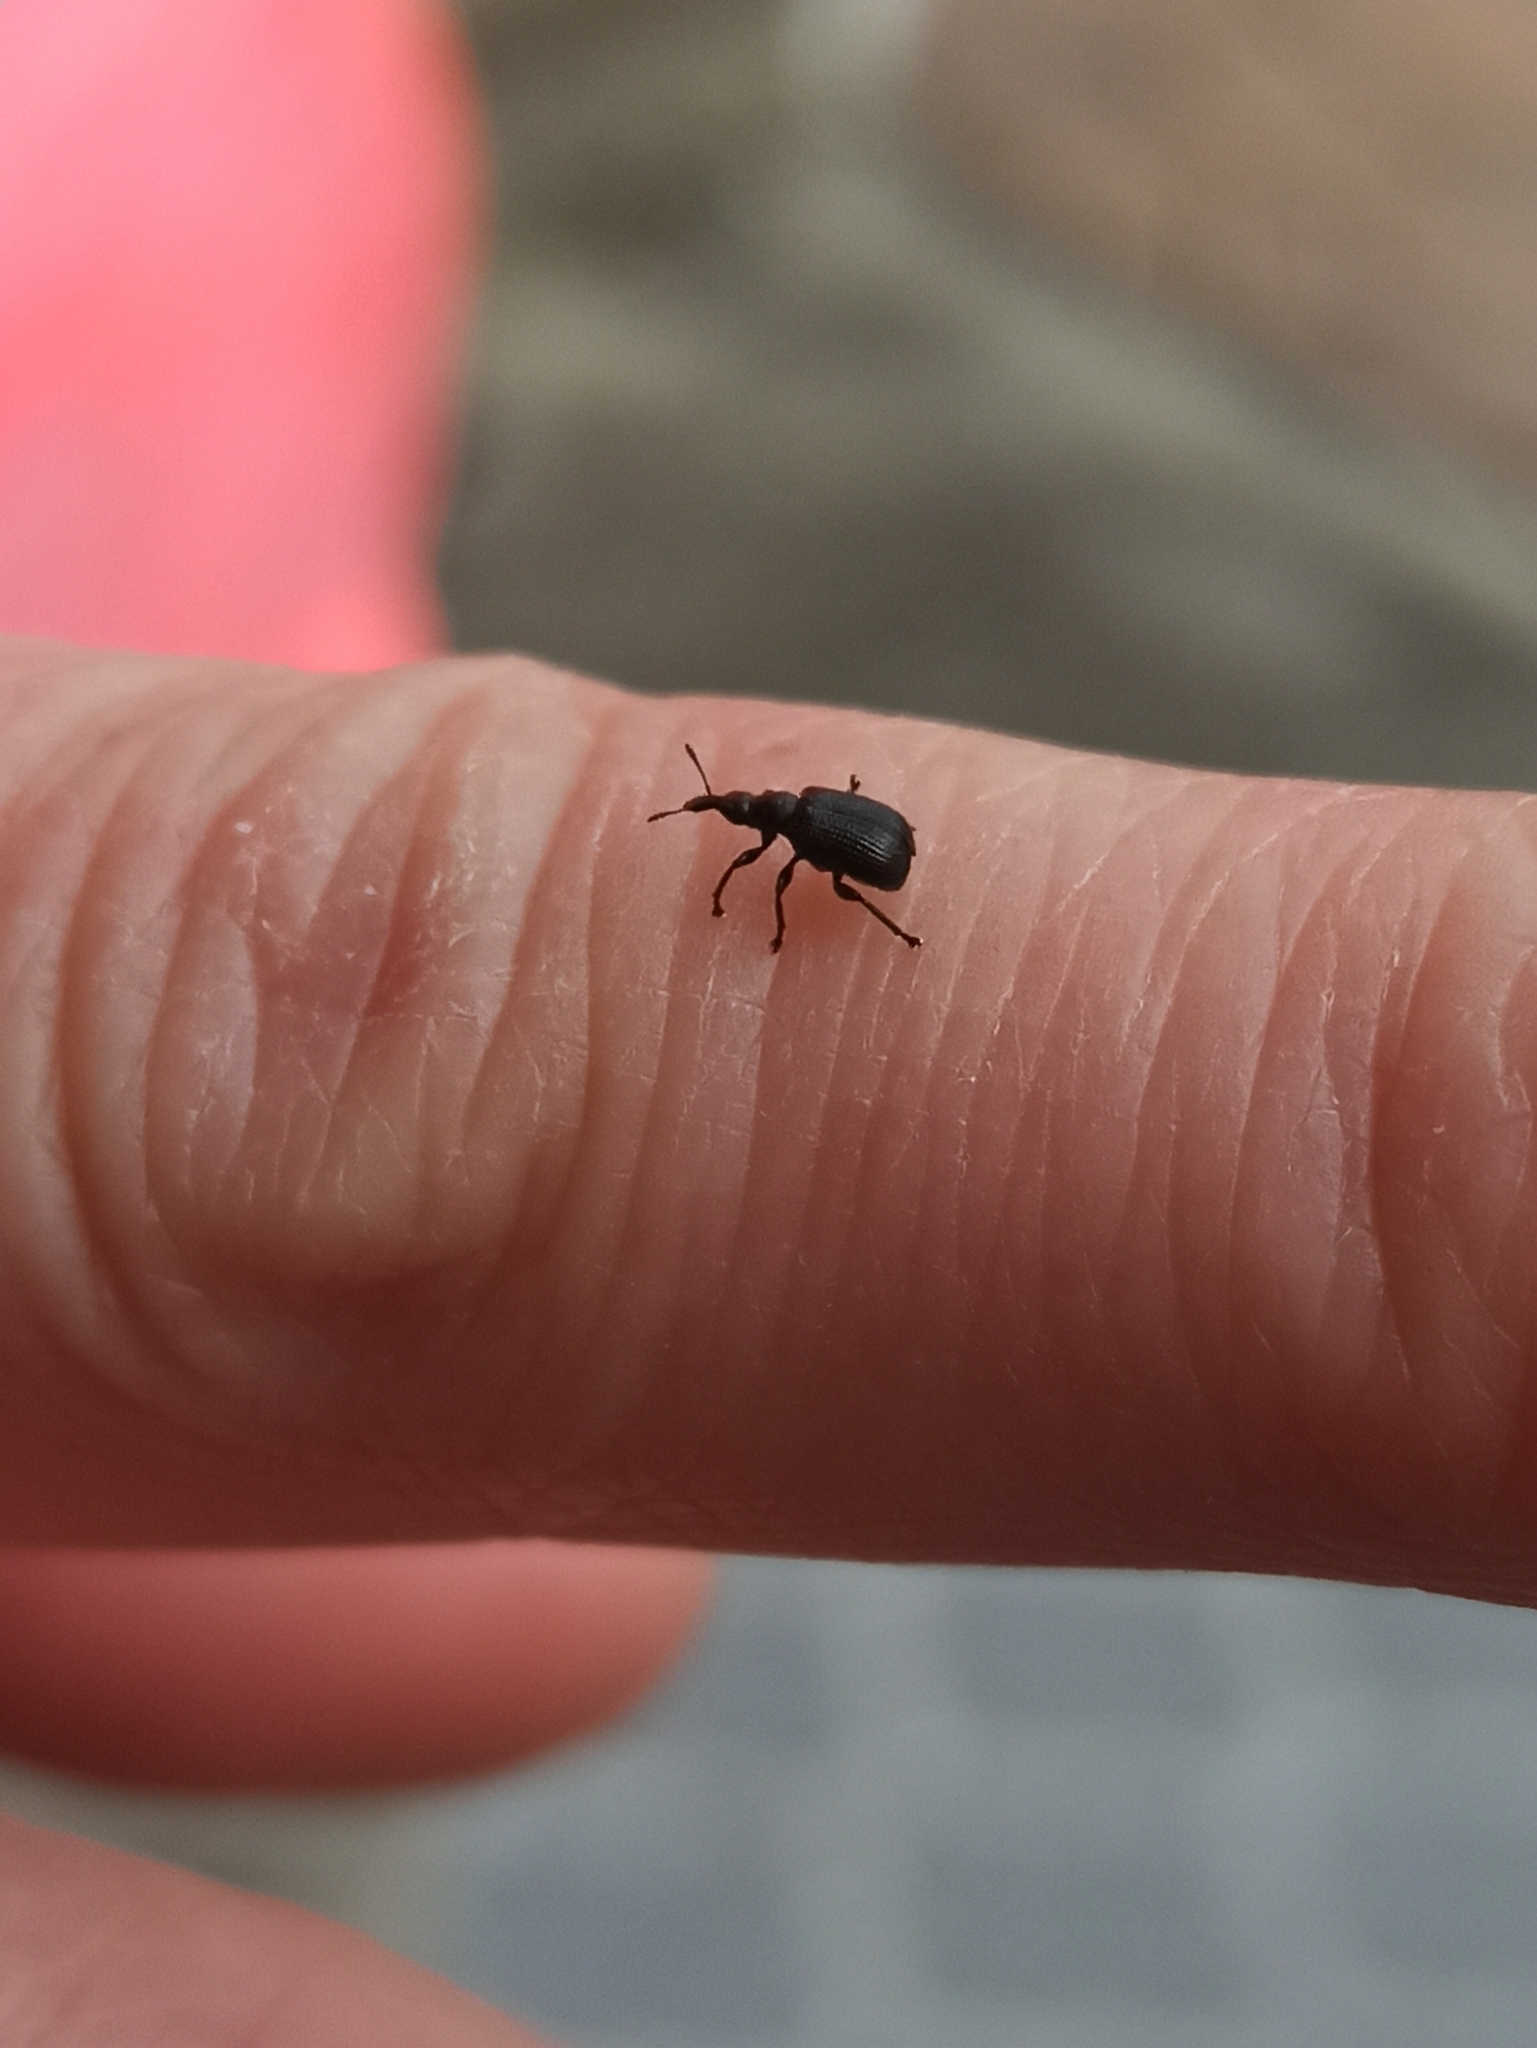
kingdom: Animalia
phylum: Arthropoda
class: Insecta
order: Coleoptera
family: Attelabidae
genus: Deporaus
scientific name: Deporaus betulae
